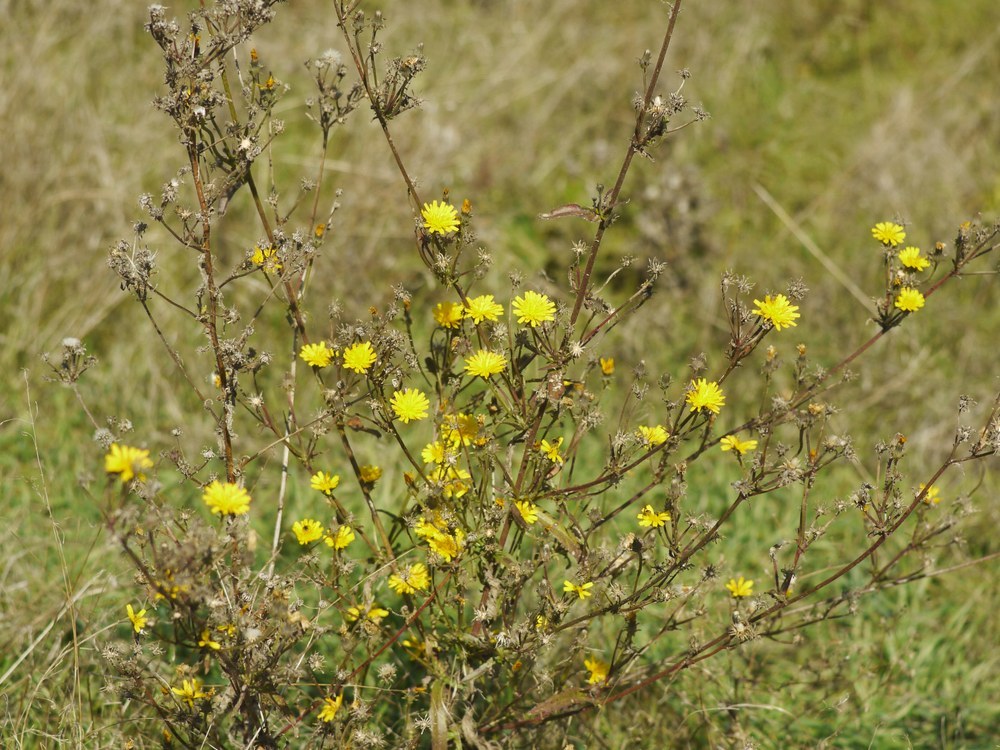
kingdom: Plantae
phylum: Tracheophyta
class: Magnoliopsida
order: Asterales
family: Asteraceae
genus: Picris
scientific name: Picris hieracioides
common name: Hawkweed oxtongue
